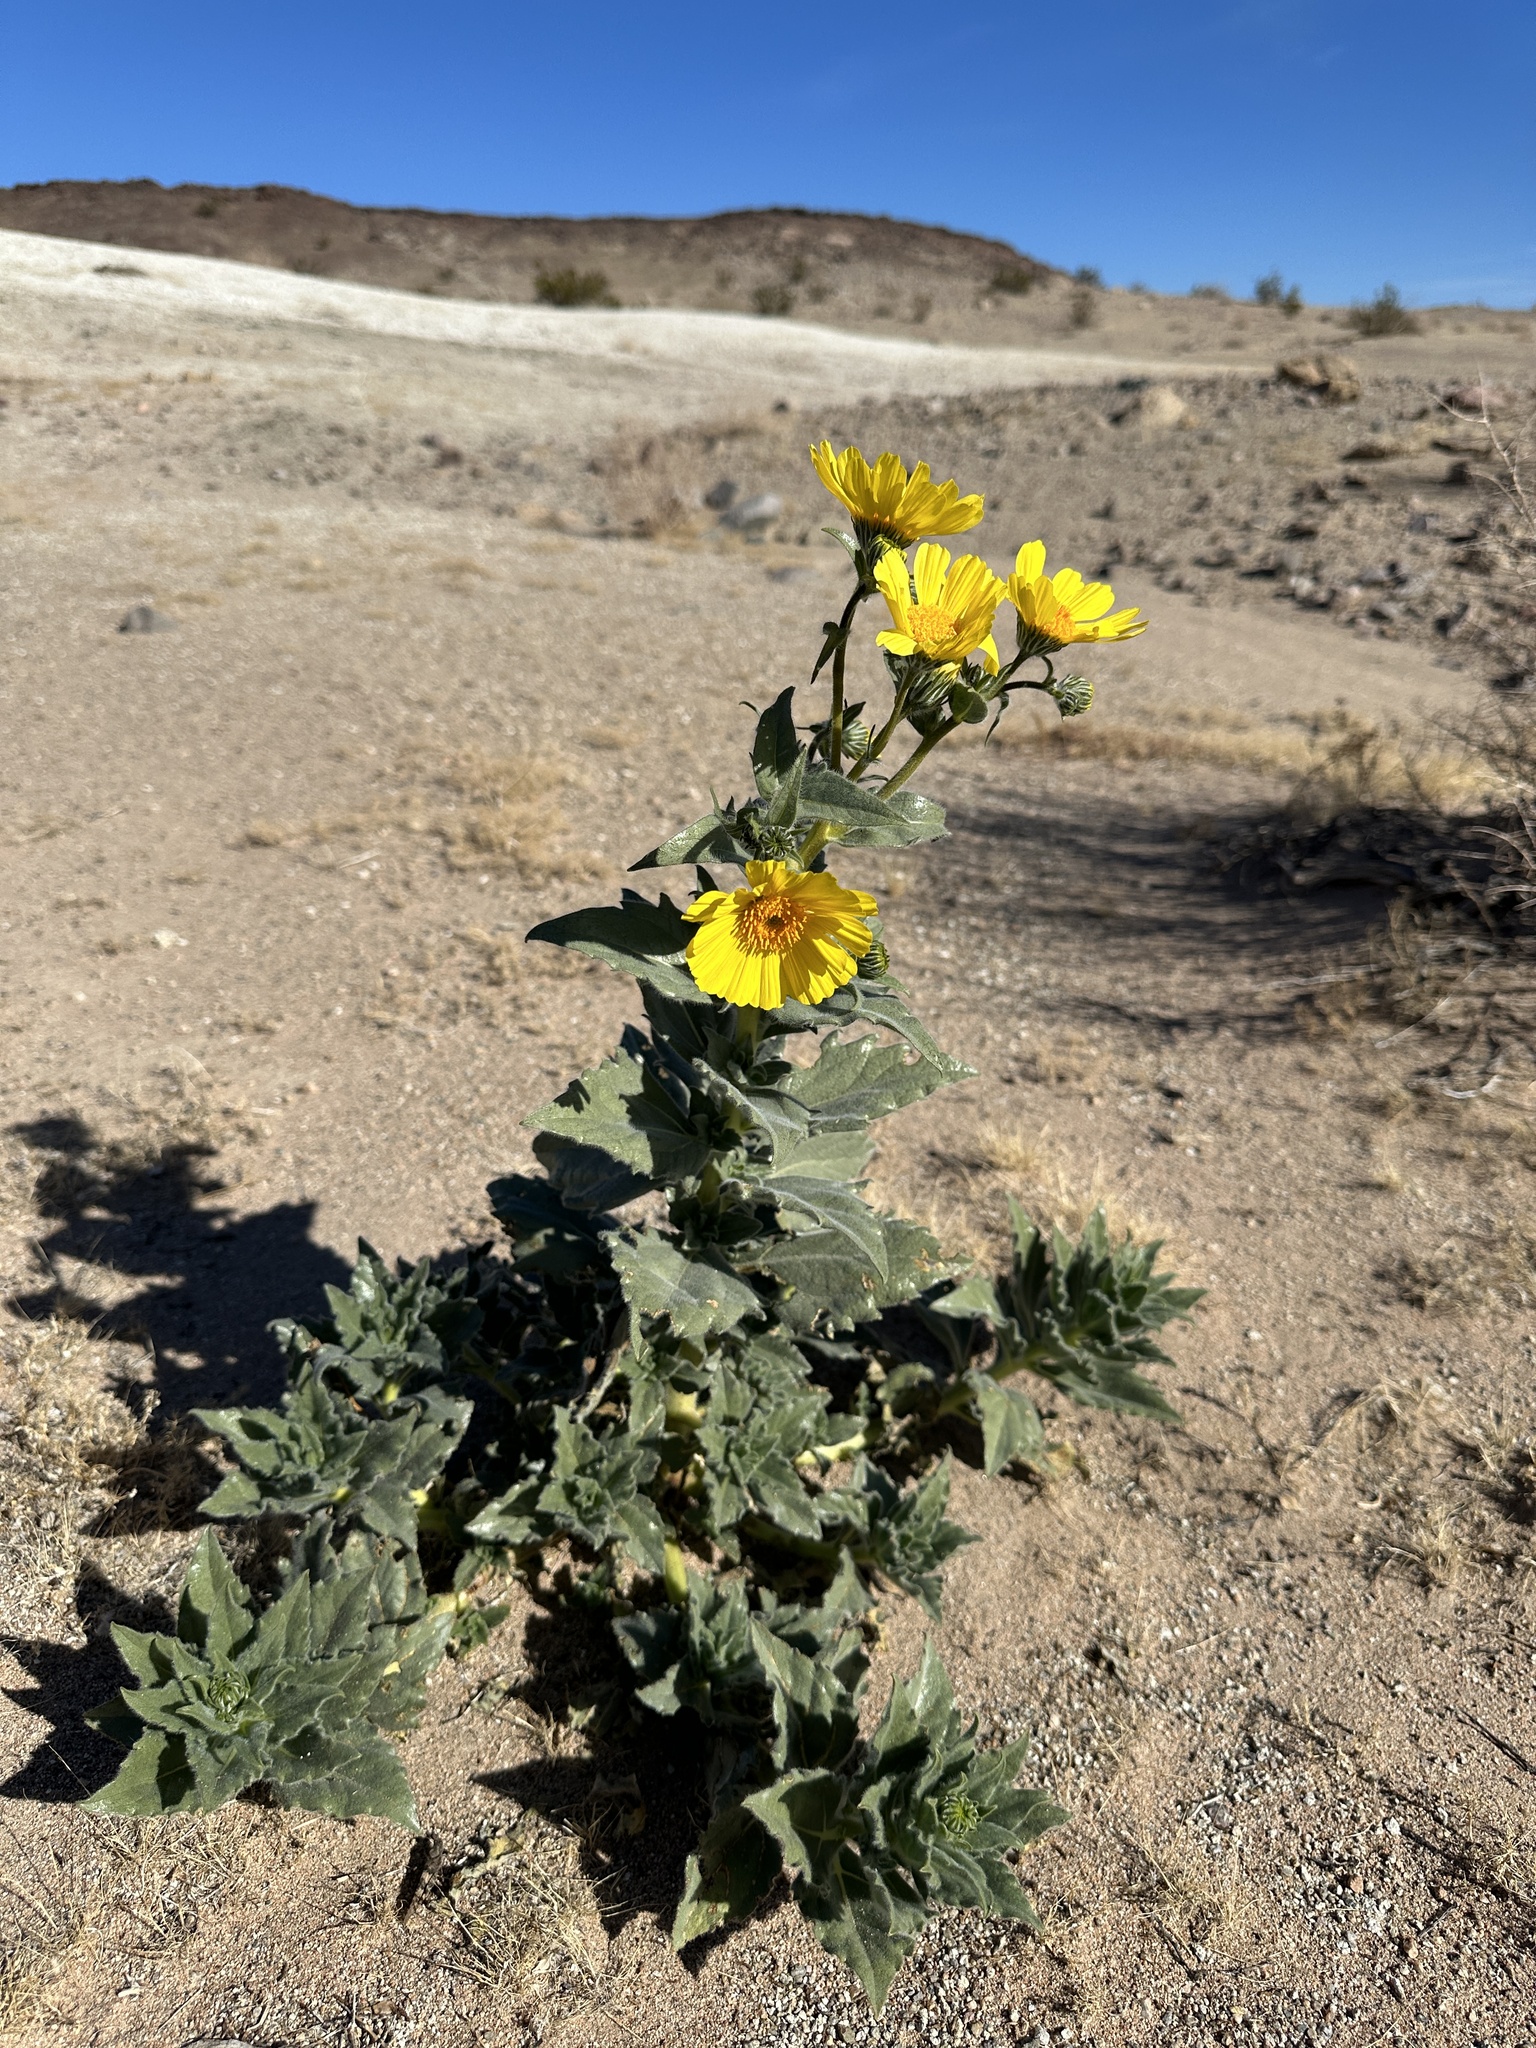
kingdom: Plantae
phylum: Tracheophyta
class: Magnoliopsida
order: Asterales
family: Asteraceae
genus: Geraea
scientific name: Geraea canescens
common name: Desert-gold
